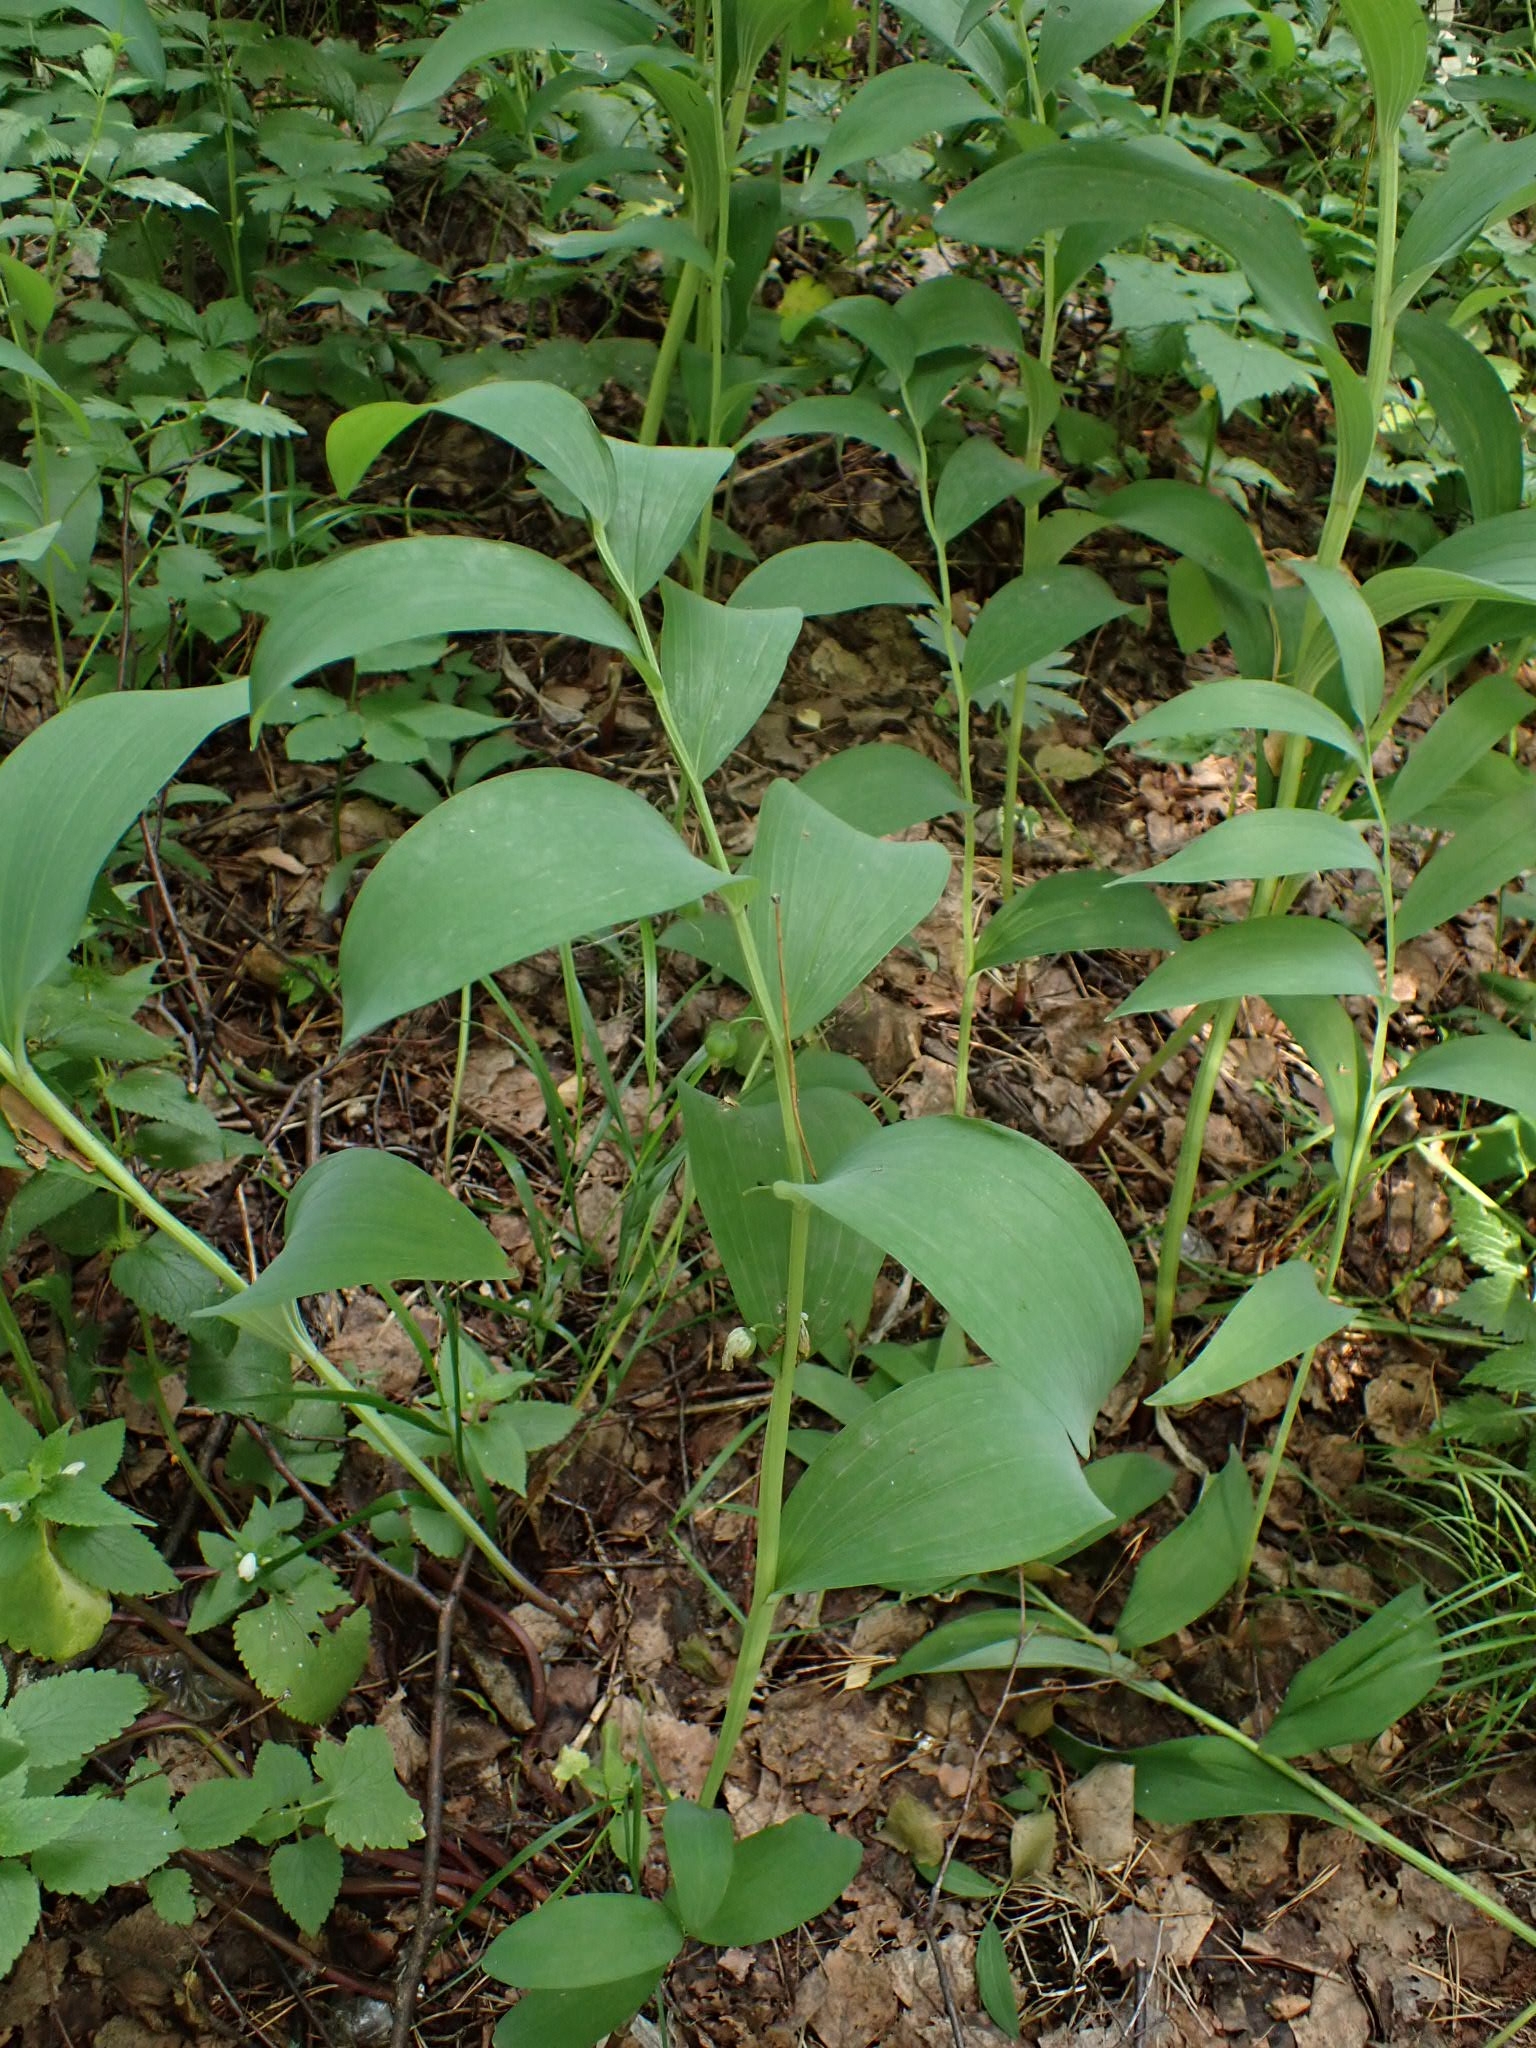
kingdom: Plantae
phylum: Tracheophyta
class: Liliopsida
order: Asparagales
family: Asparagaceae
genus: Polygonatum
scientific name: Polygonatum odoratum
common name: Angular solomon's-seal
